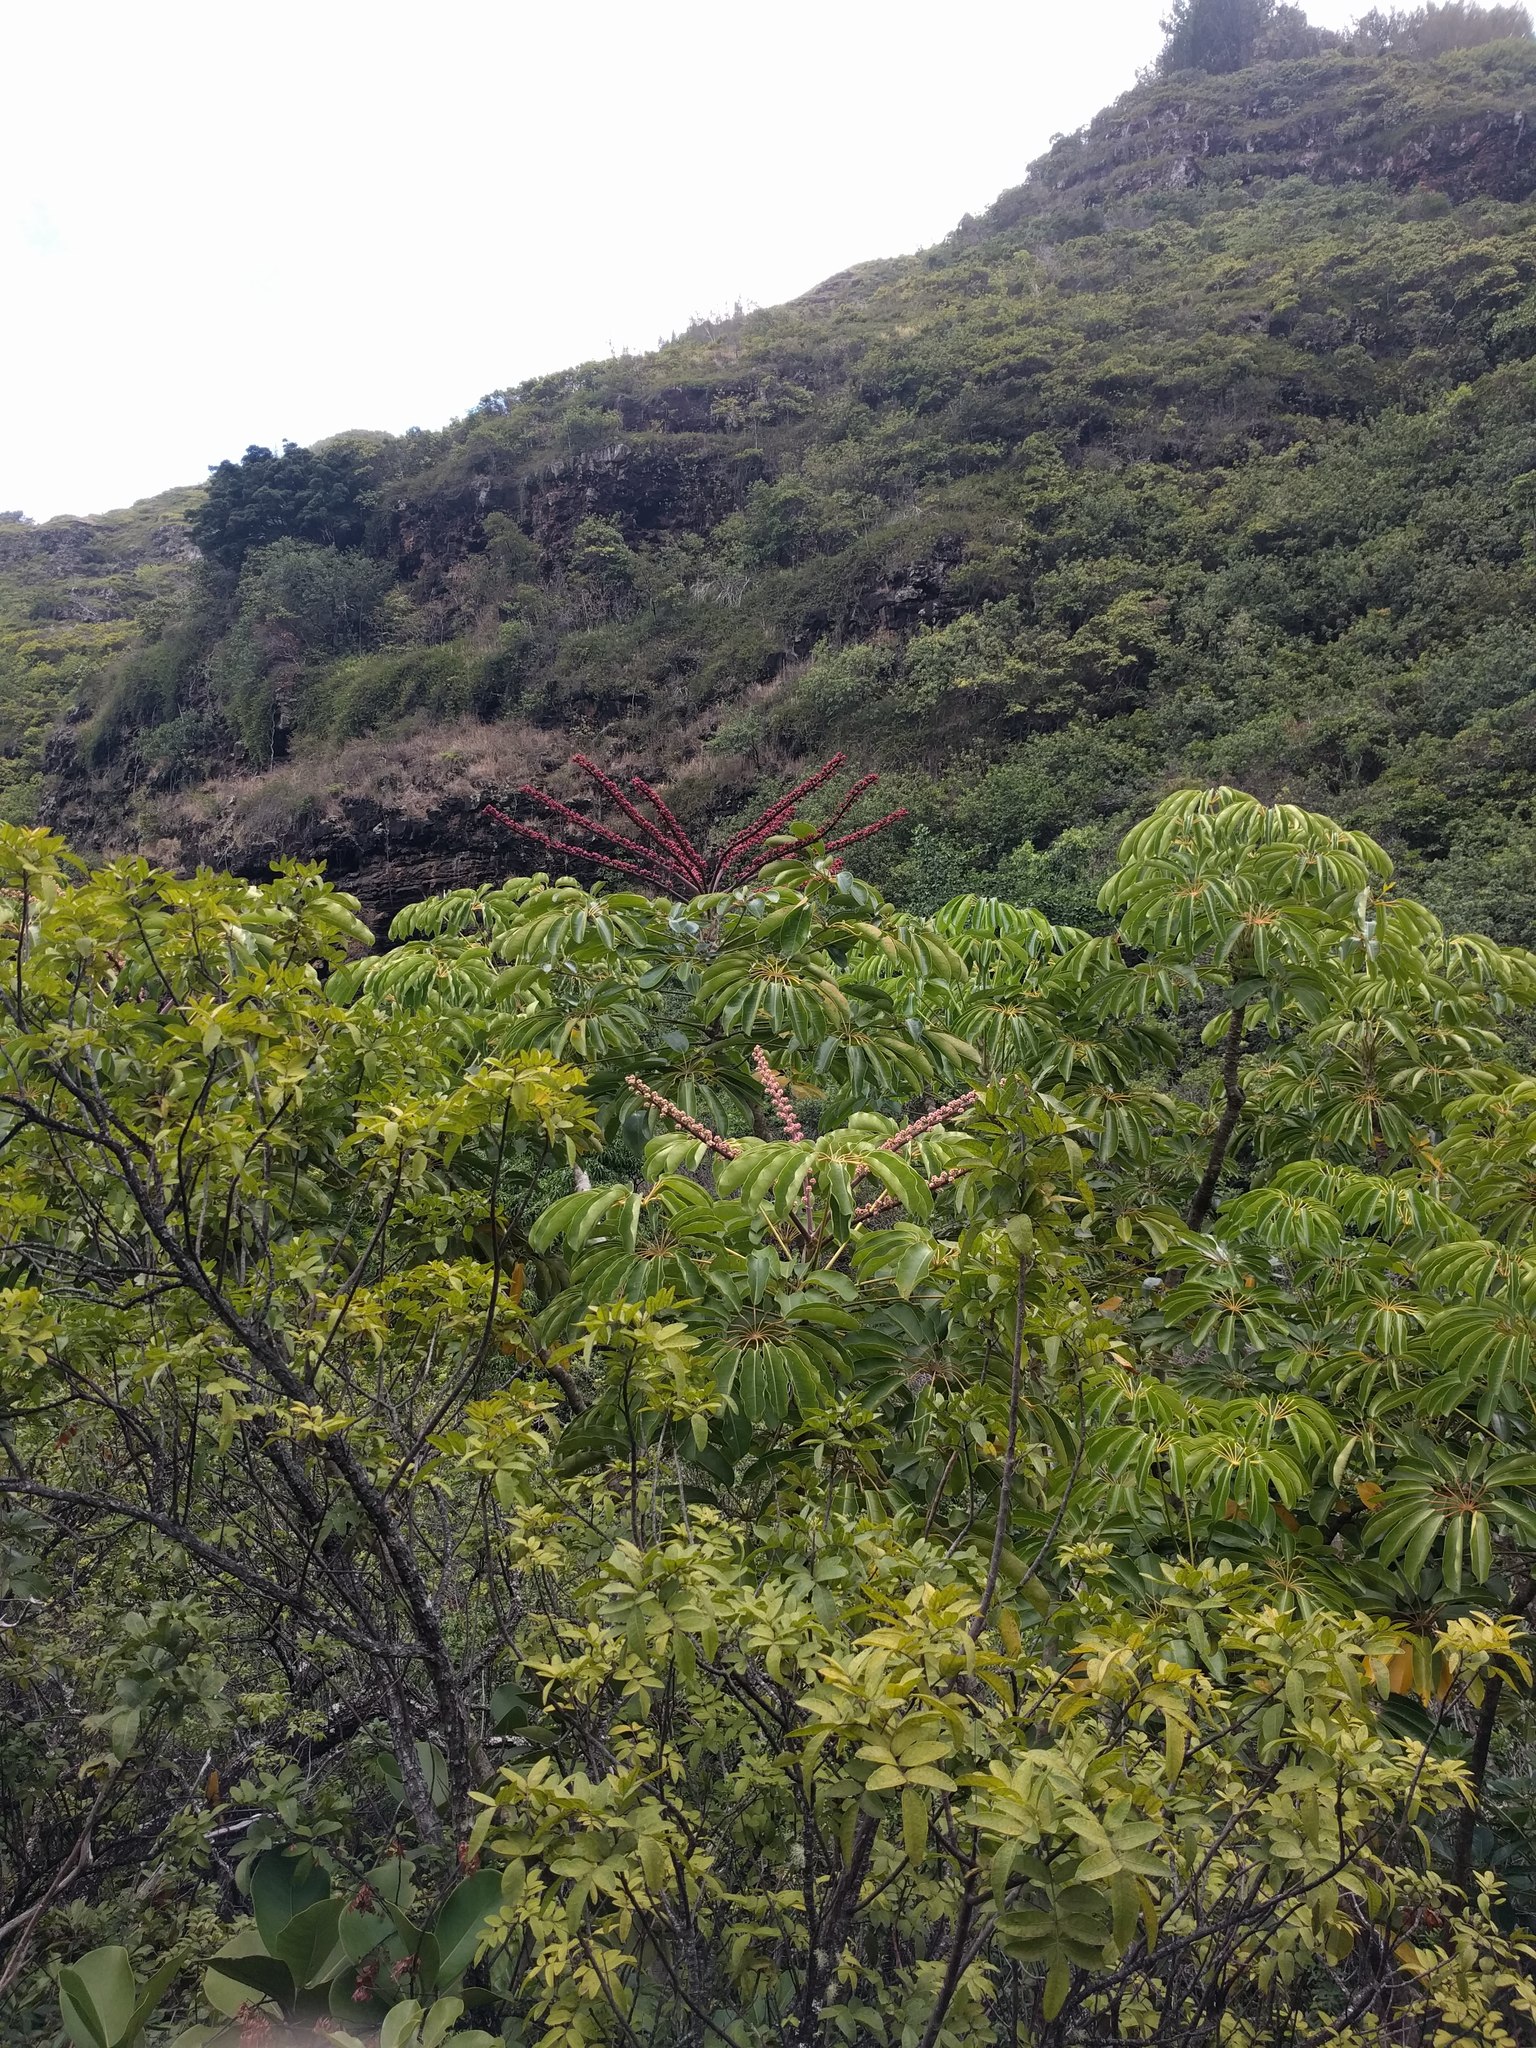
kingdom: Plantae
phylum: Tracheophyta
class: Magnoliopsida
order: Apiales
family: Araliaceae
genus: Heptapleurum
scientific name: Heptapleurum actinophyllum
